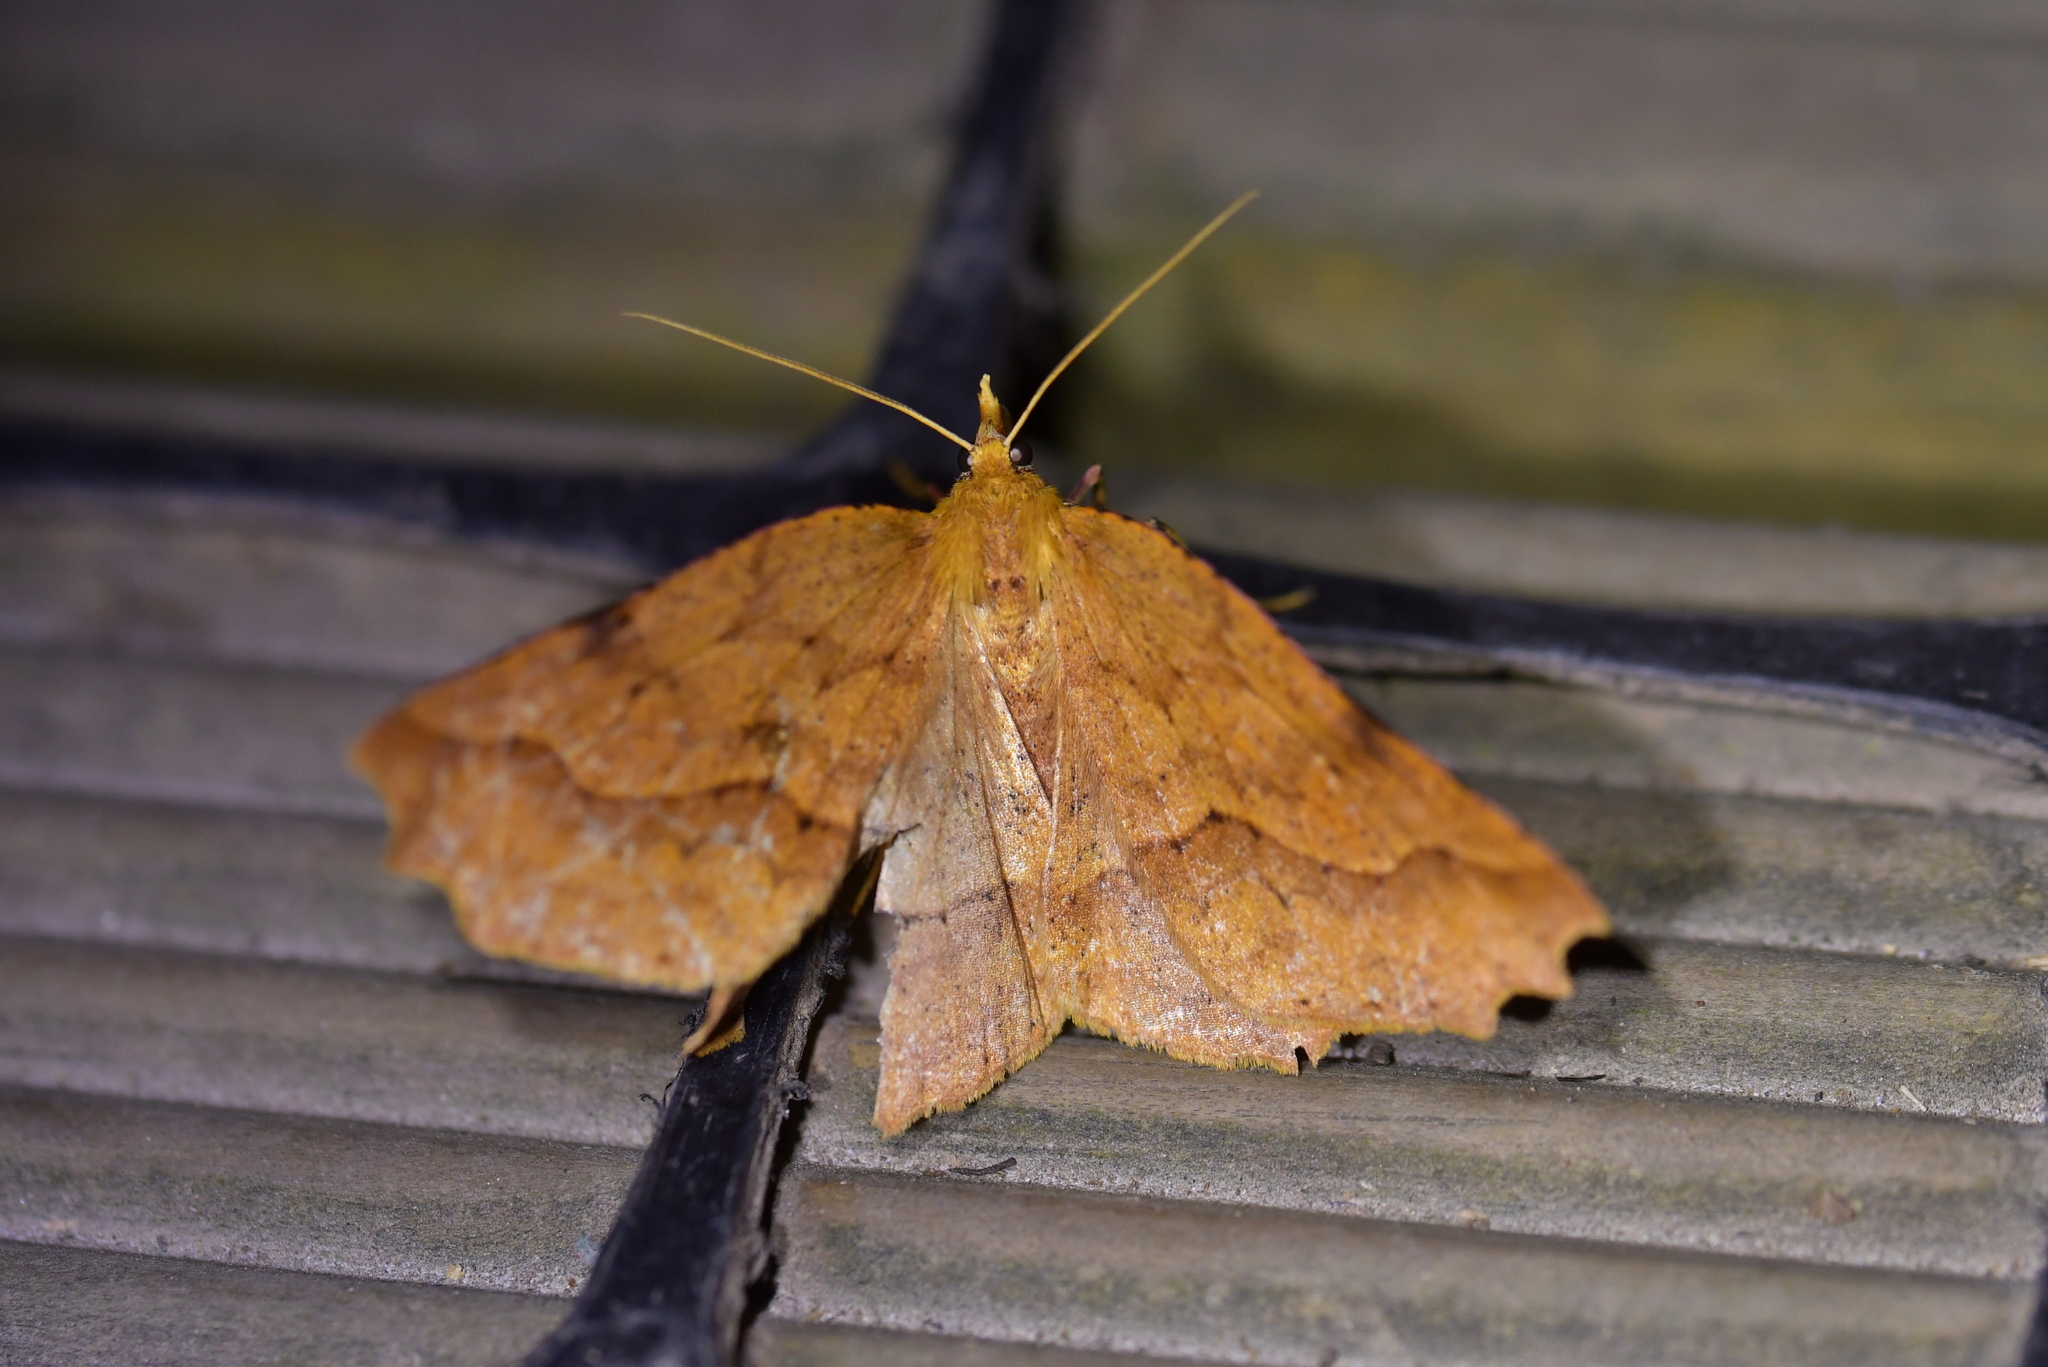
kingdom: Animalia
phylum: Arthropoda
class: Insecta
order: Lepidoptera
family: Geometridae
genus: Ischalis
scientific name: Ischalis variabilis
